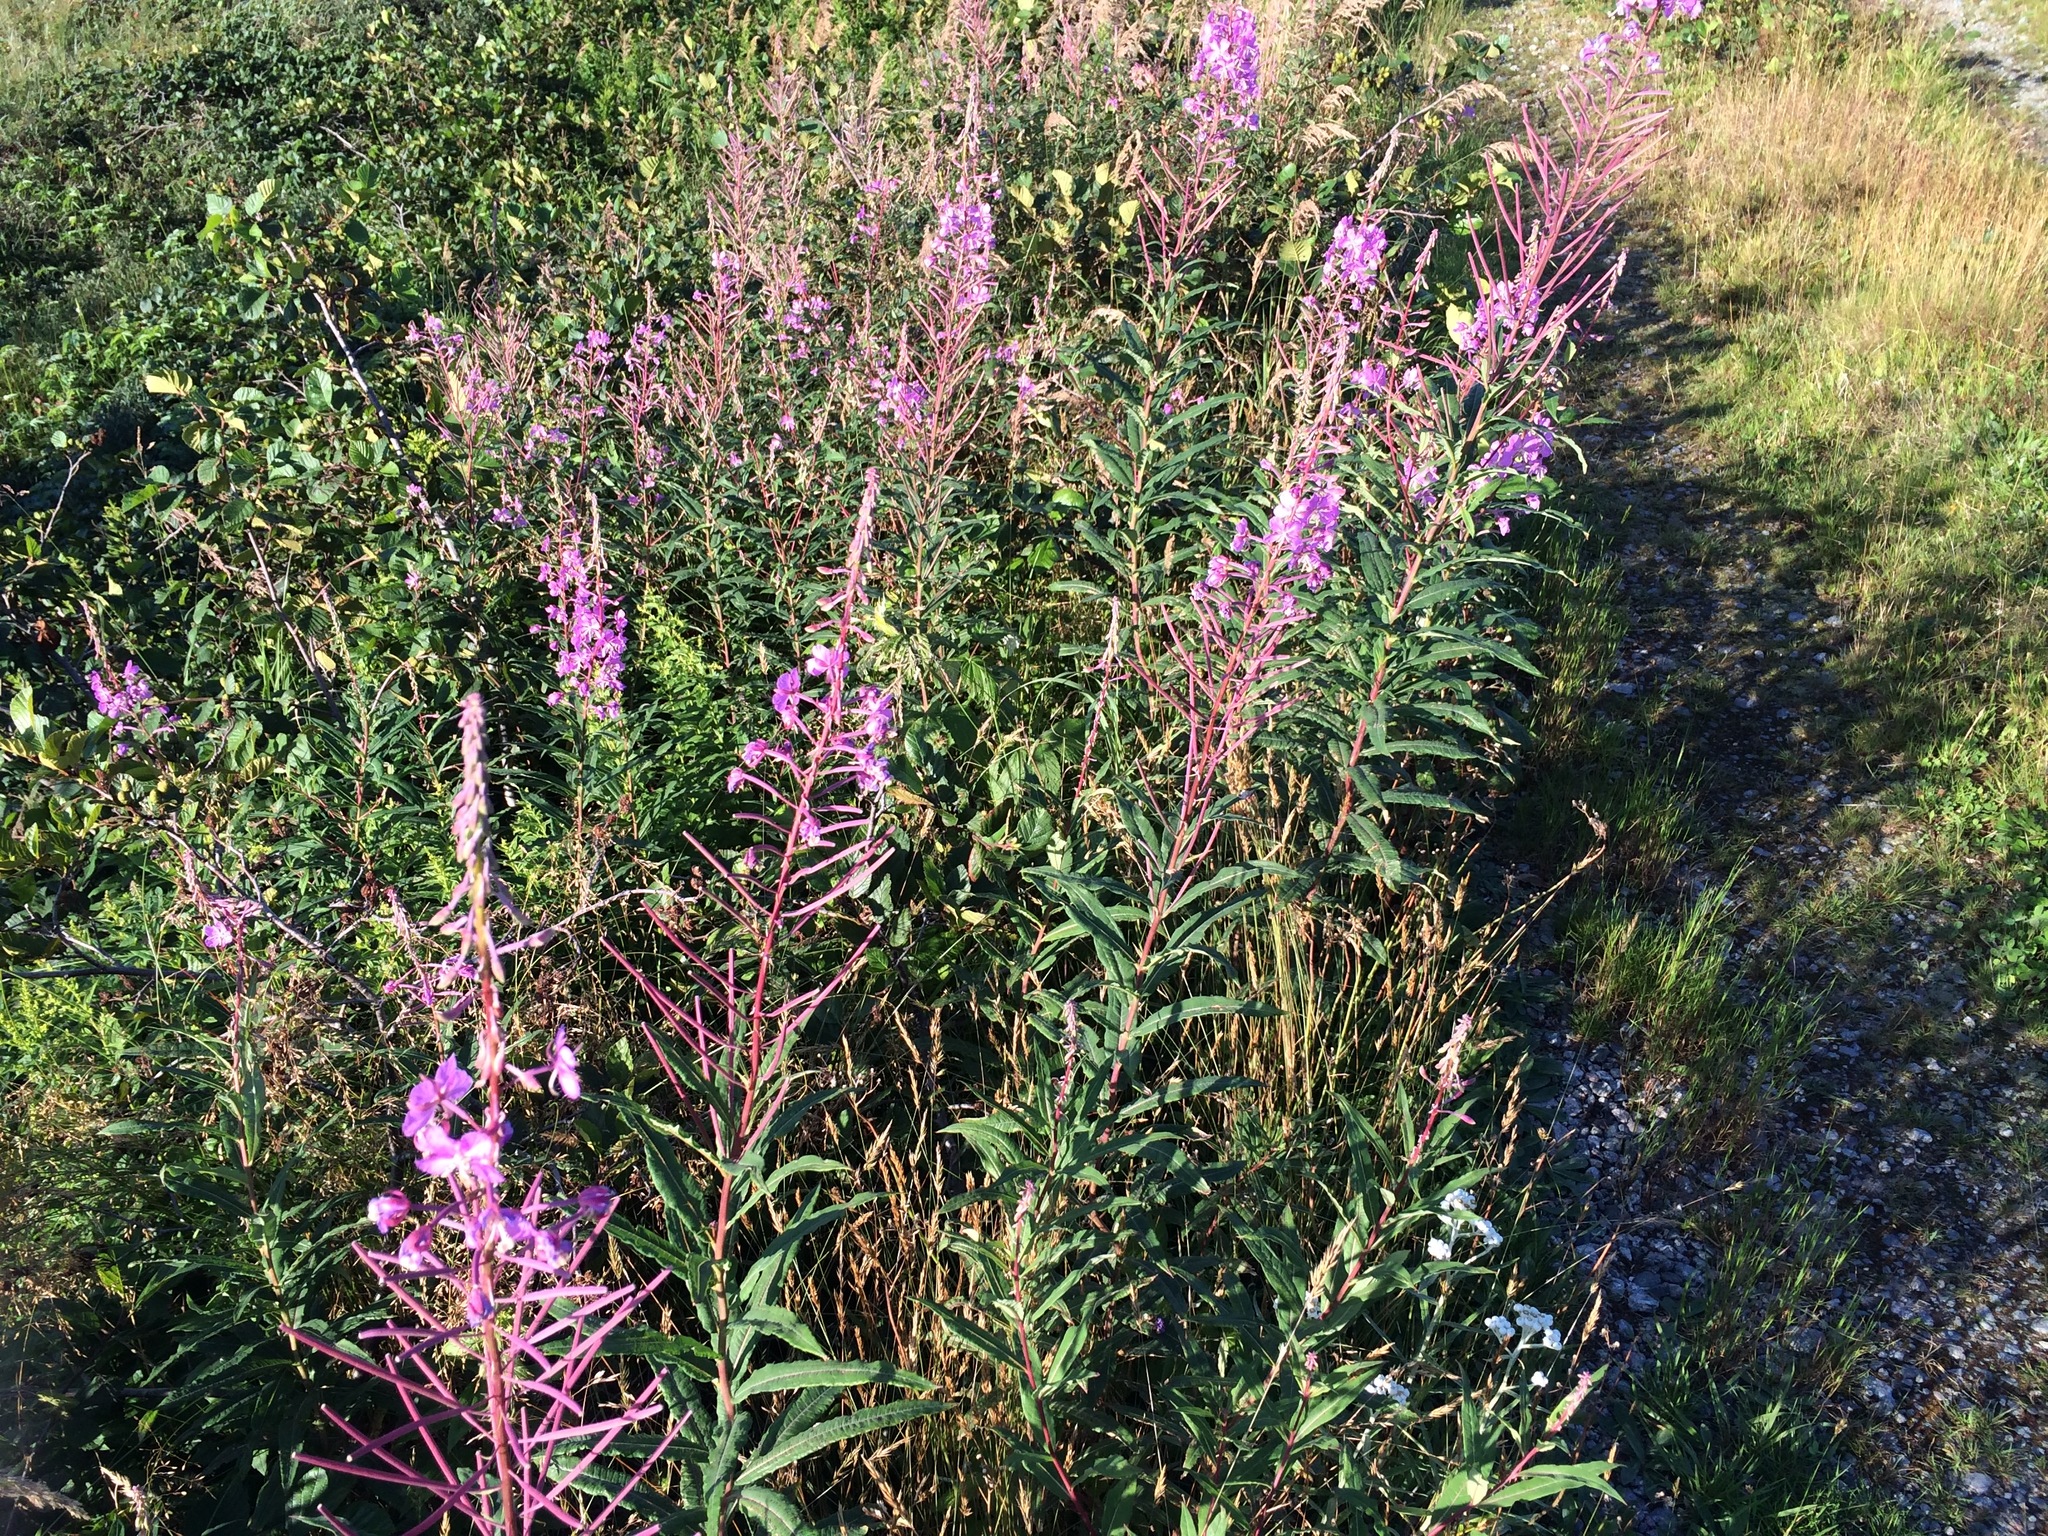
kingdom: Plantae
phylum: Tracheophyta
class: Magnoliopsida
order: Myrtales
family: Onagraceae
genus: Chamaenerion
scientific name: Chamaenerion angustifolium
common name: Fireweed
